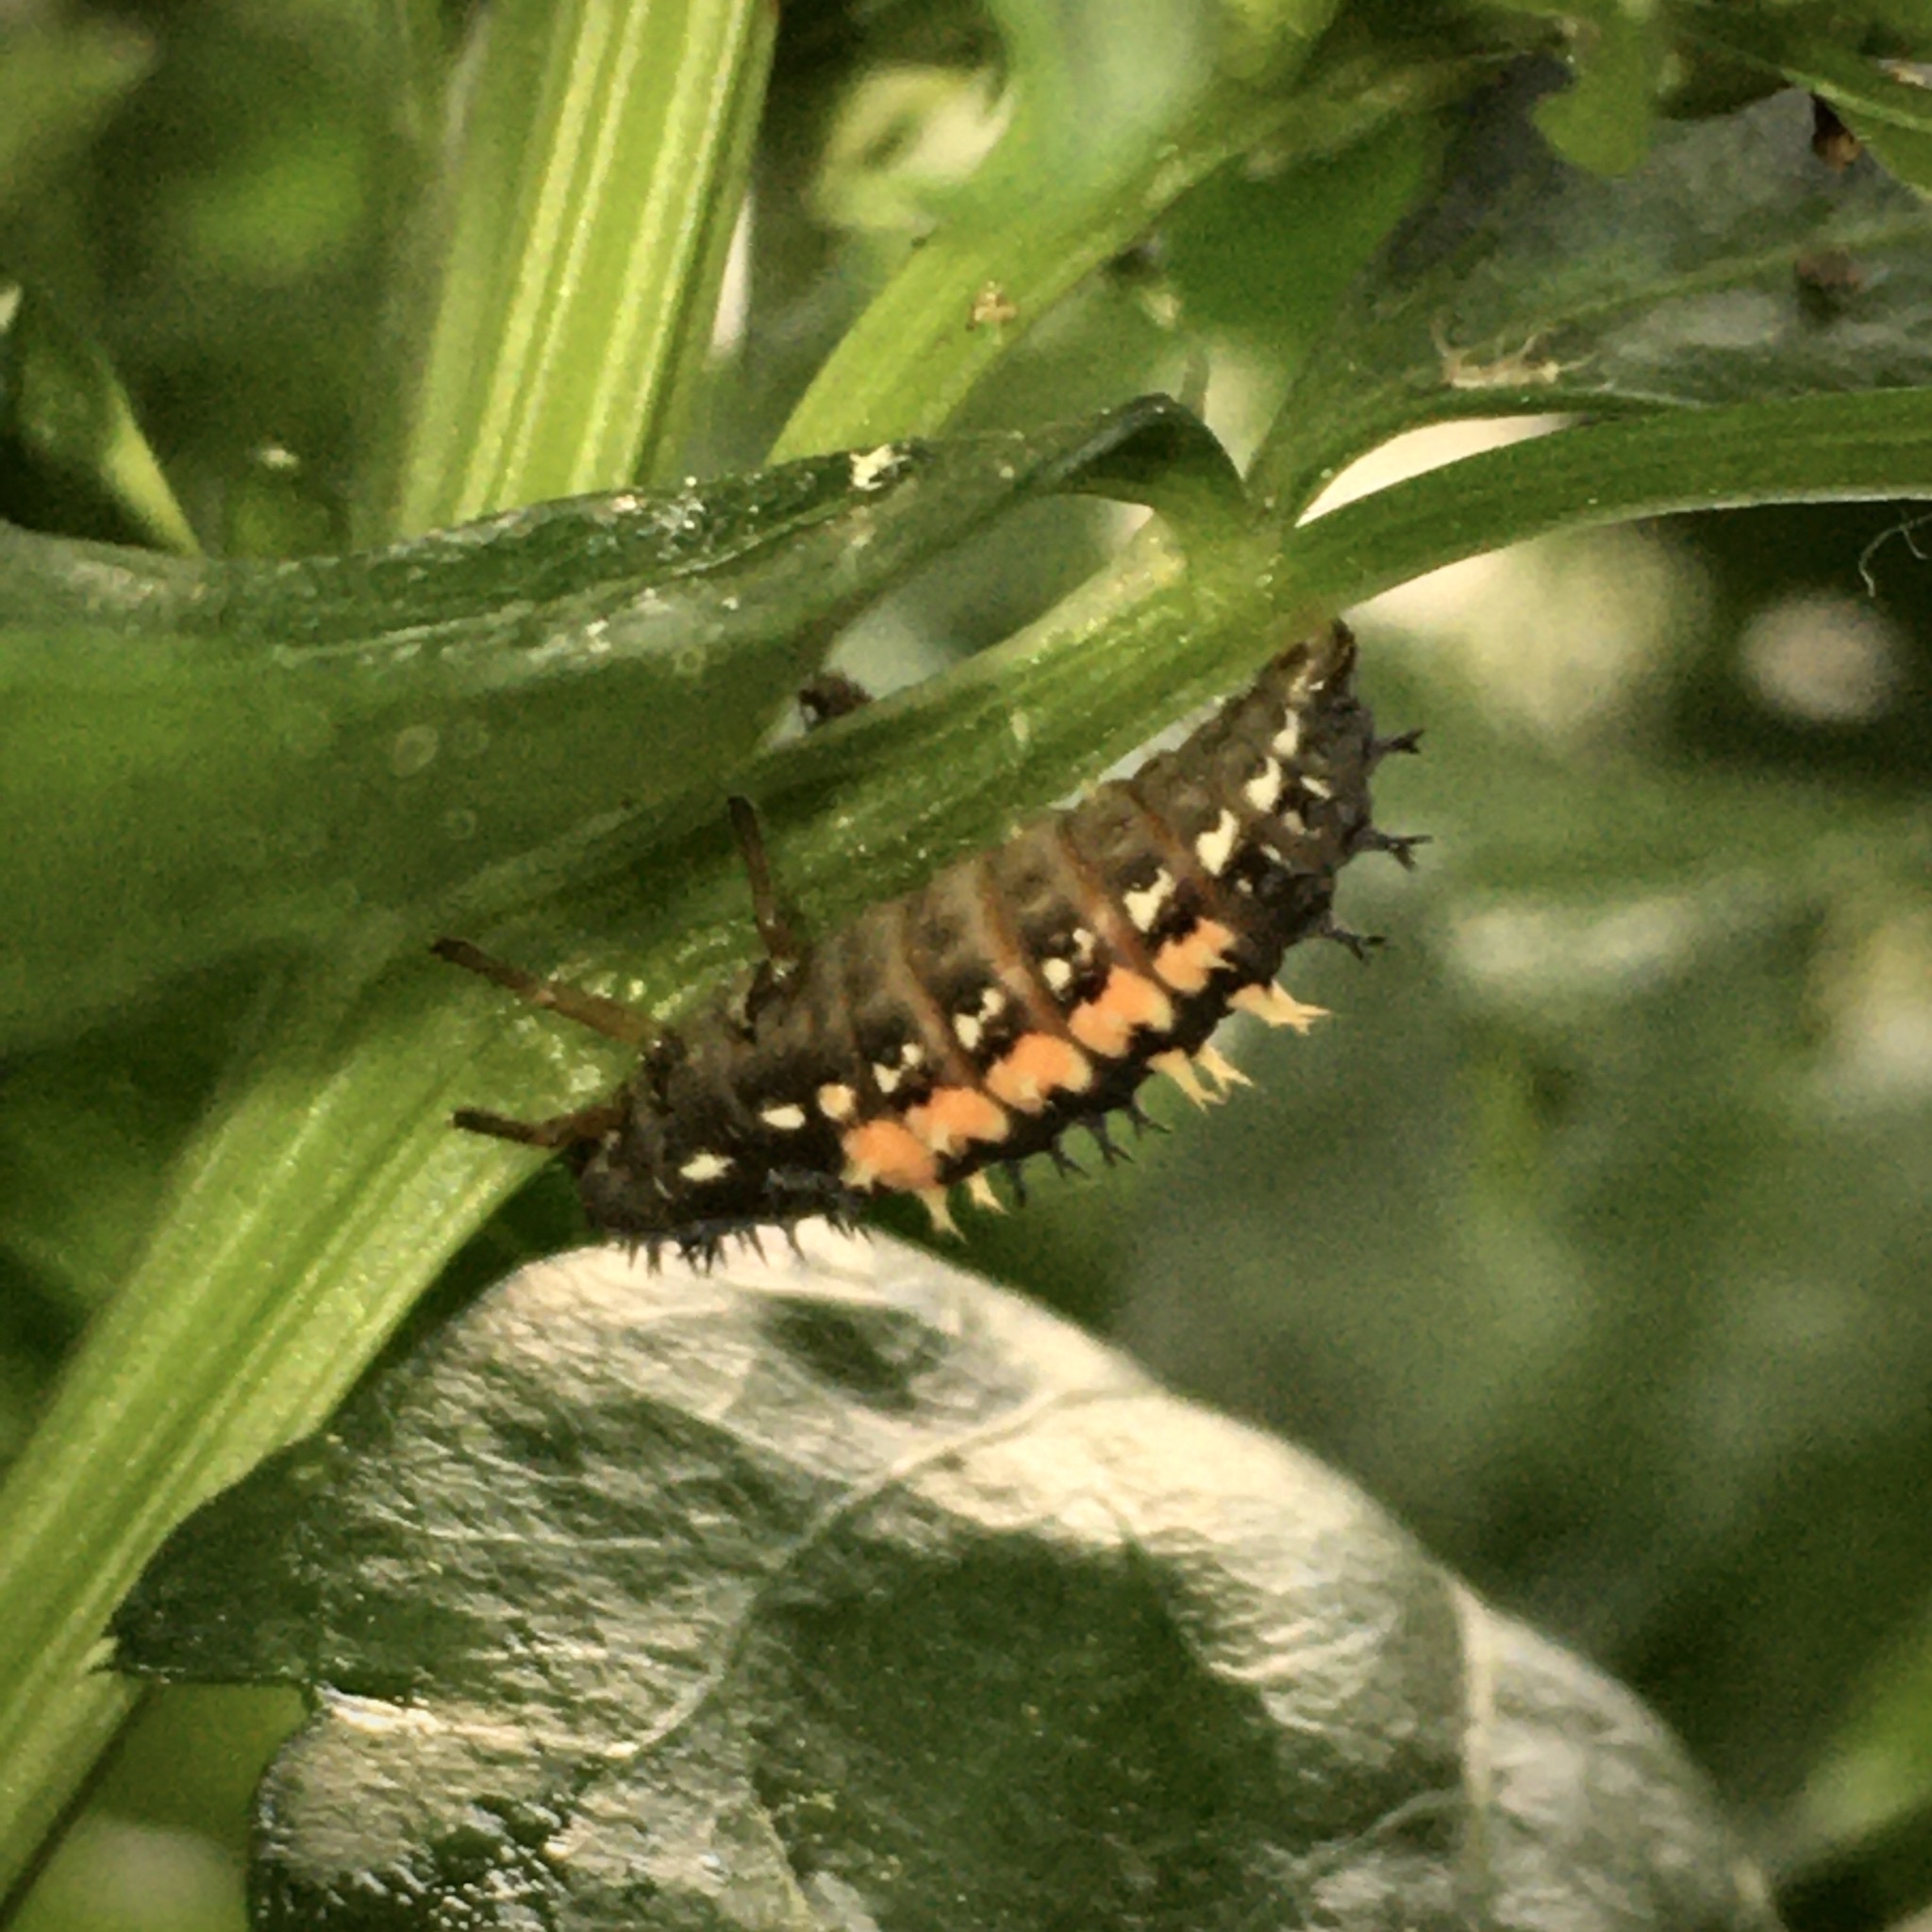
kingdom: Animalia
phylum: Arthropoda
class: Insecta
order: Coleoptera
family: Coccinellidae
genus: Harmonia
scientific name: Harmonia axyridis
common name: Harlequin ladybird
